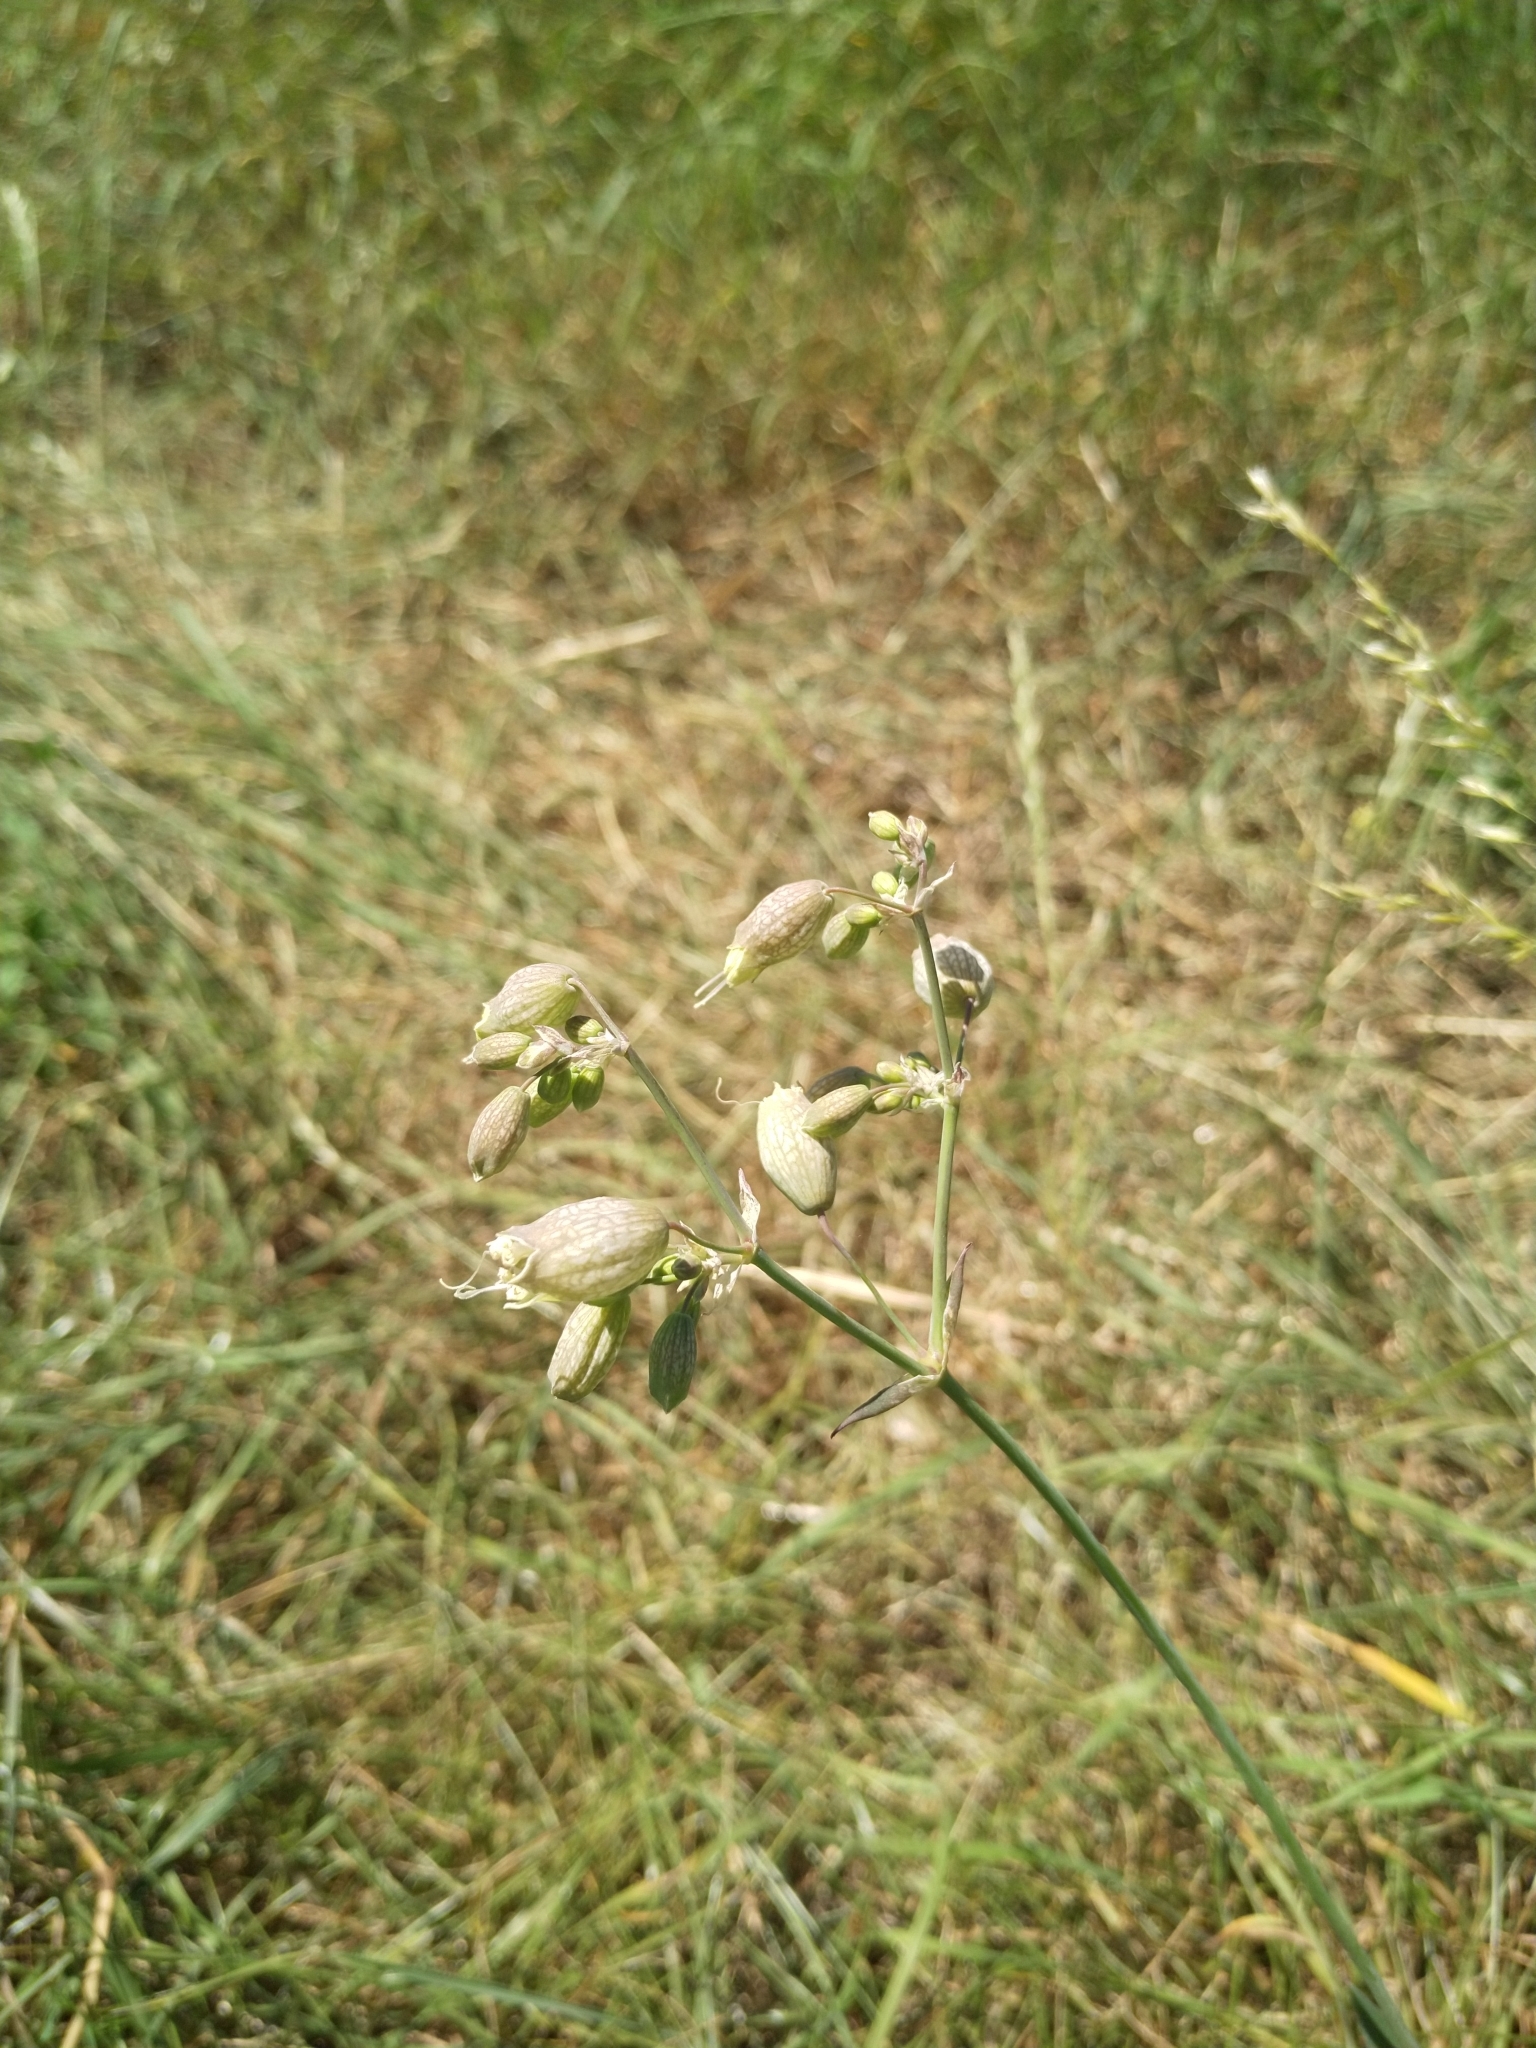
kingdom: Plantae
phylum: Tracheophyta
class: Magnoliopsida
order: Caryophyllales
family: Caryophyllaceae
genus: Silene
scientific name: Silene vulgaris
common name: Bladder campion
